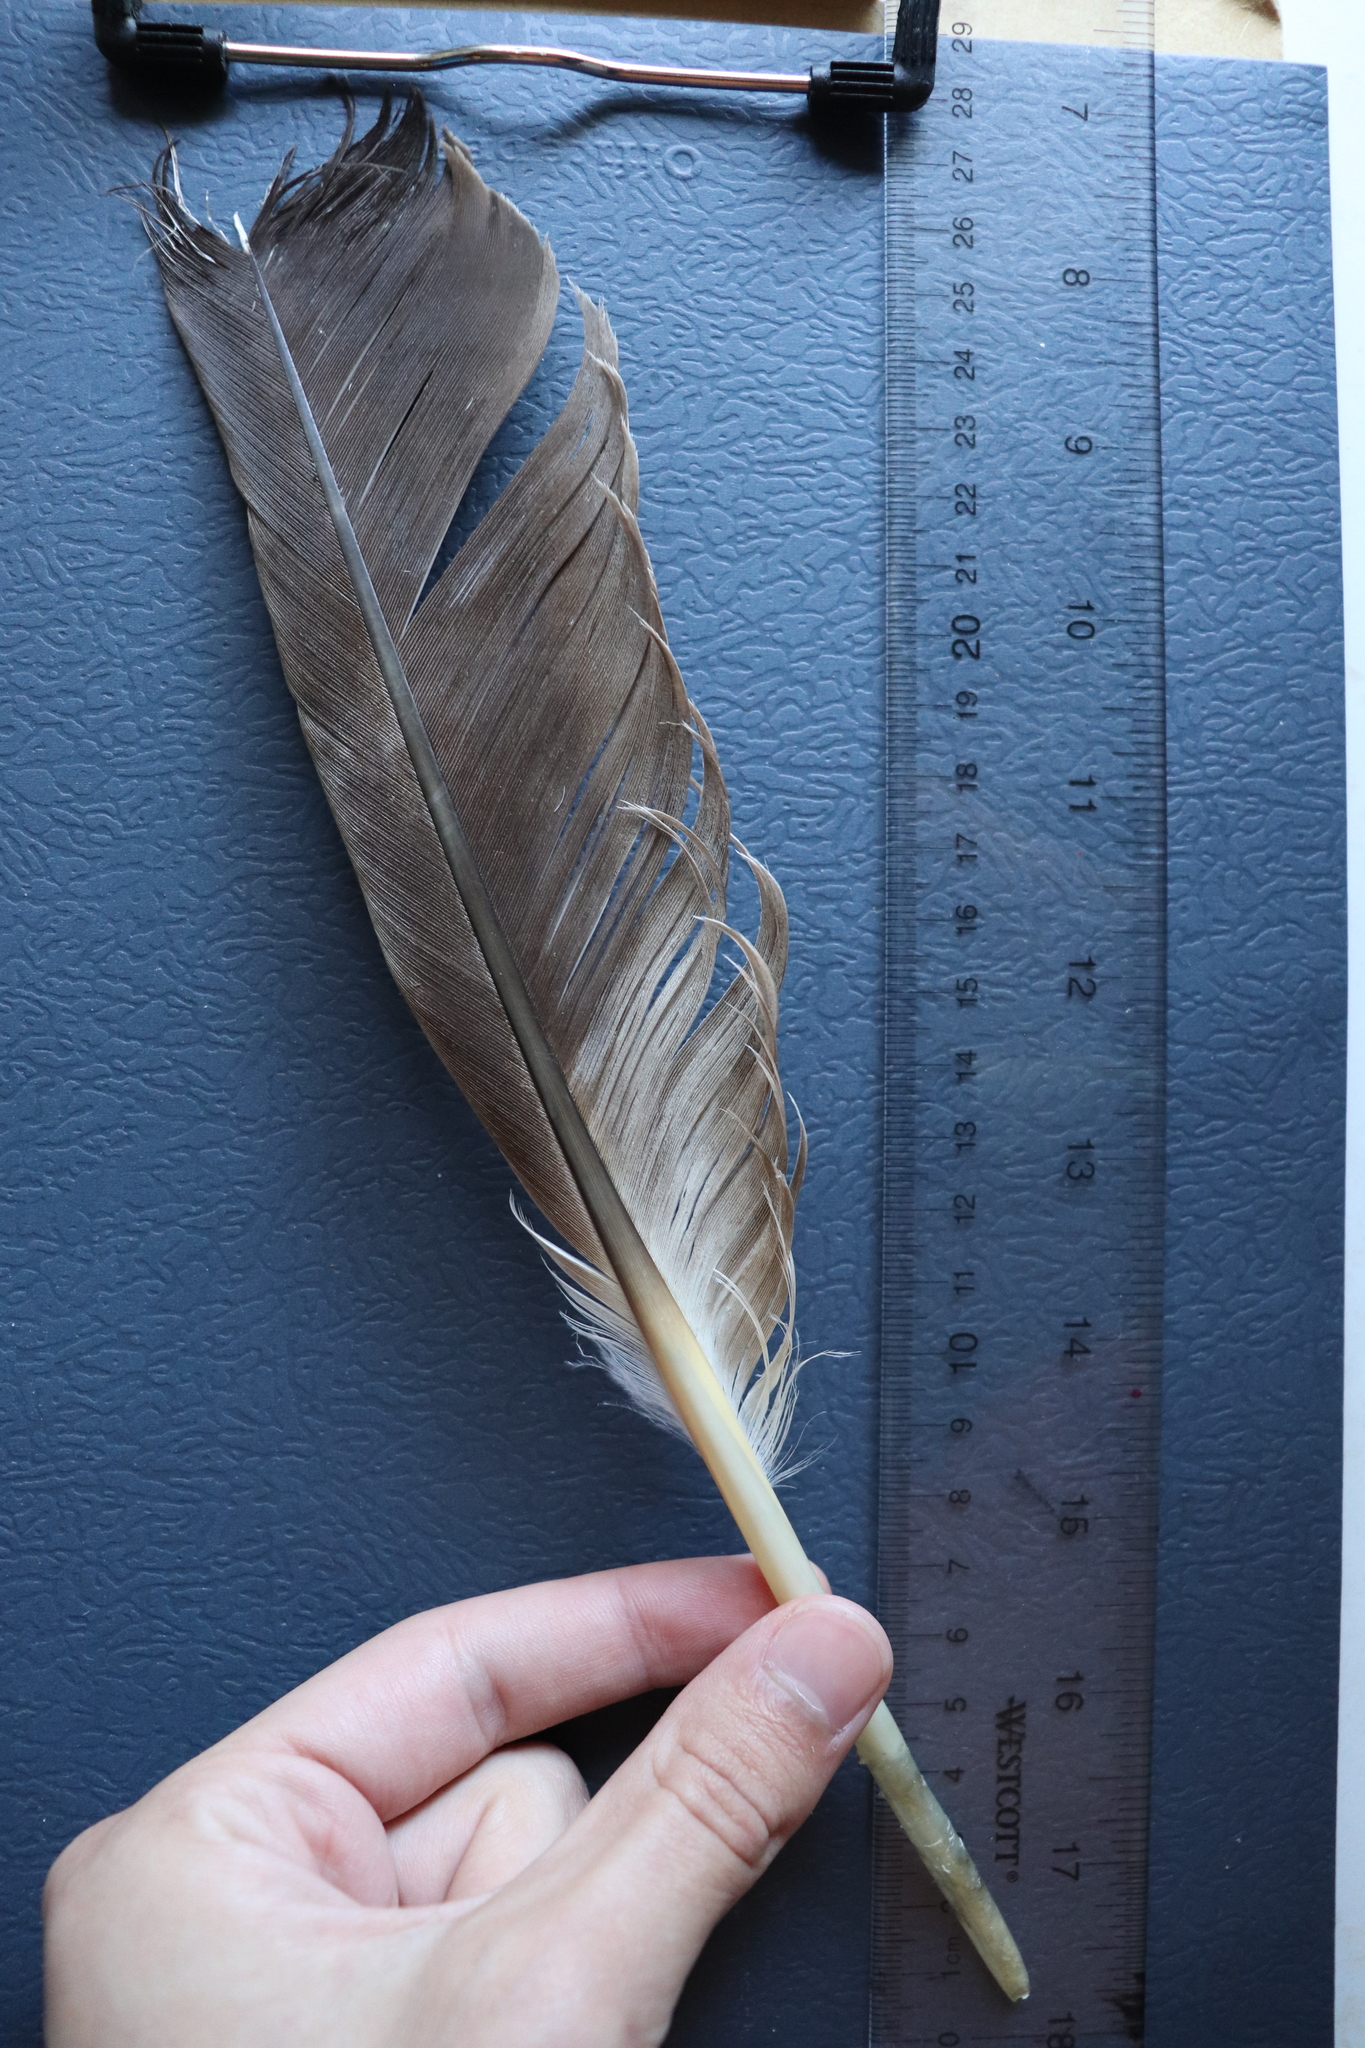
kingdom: Animalia
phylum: Chordata
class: Aves
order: Anseriformes
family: Anatidae
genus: Branta
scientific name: Branta canadensis
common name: Canada goose
